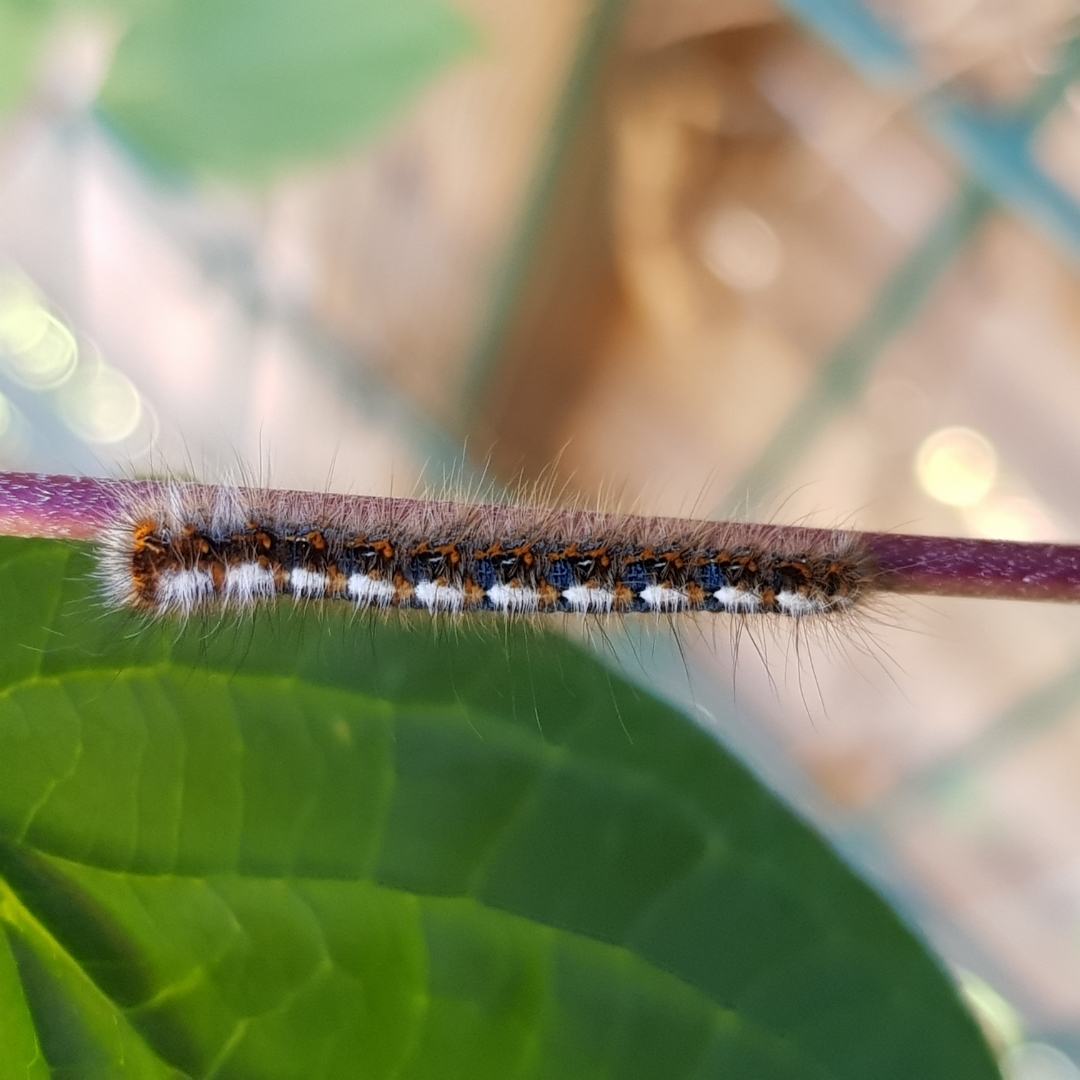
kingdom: Animalia
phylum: Arthropoda
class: Insecta
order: Lepidoptera
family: Lasiocampidae
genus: Lasiocampa
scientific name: Lasiocampa quercus
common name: Oak eggar
